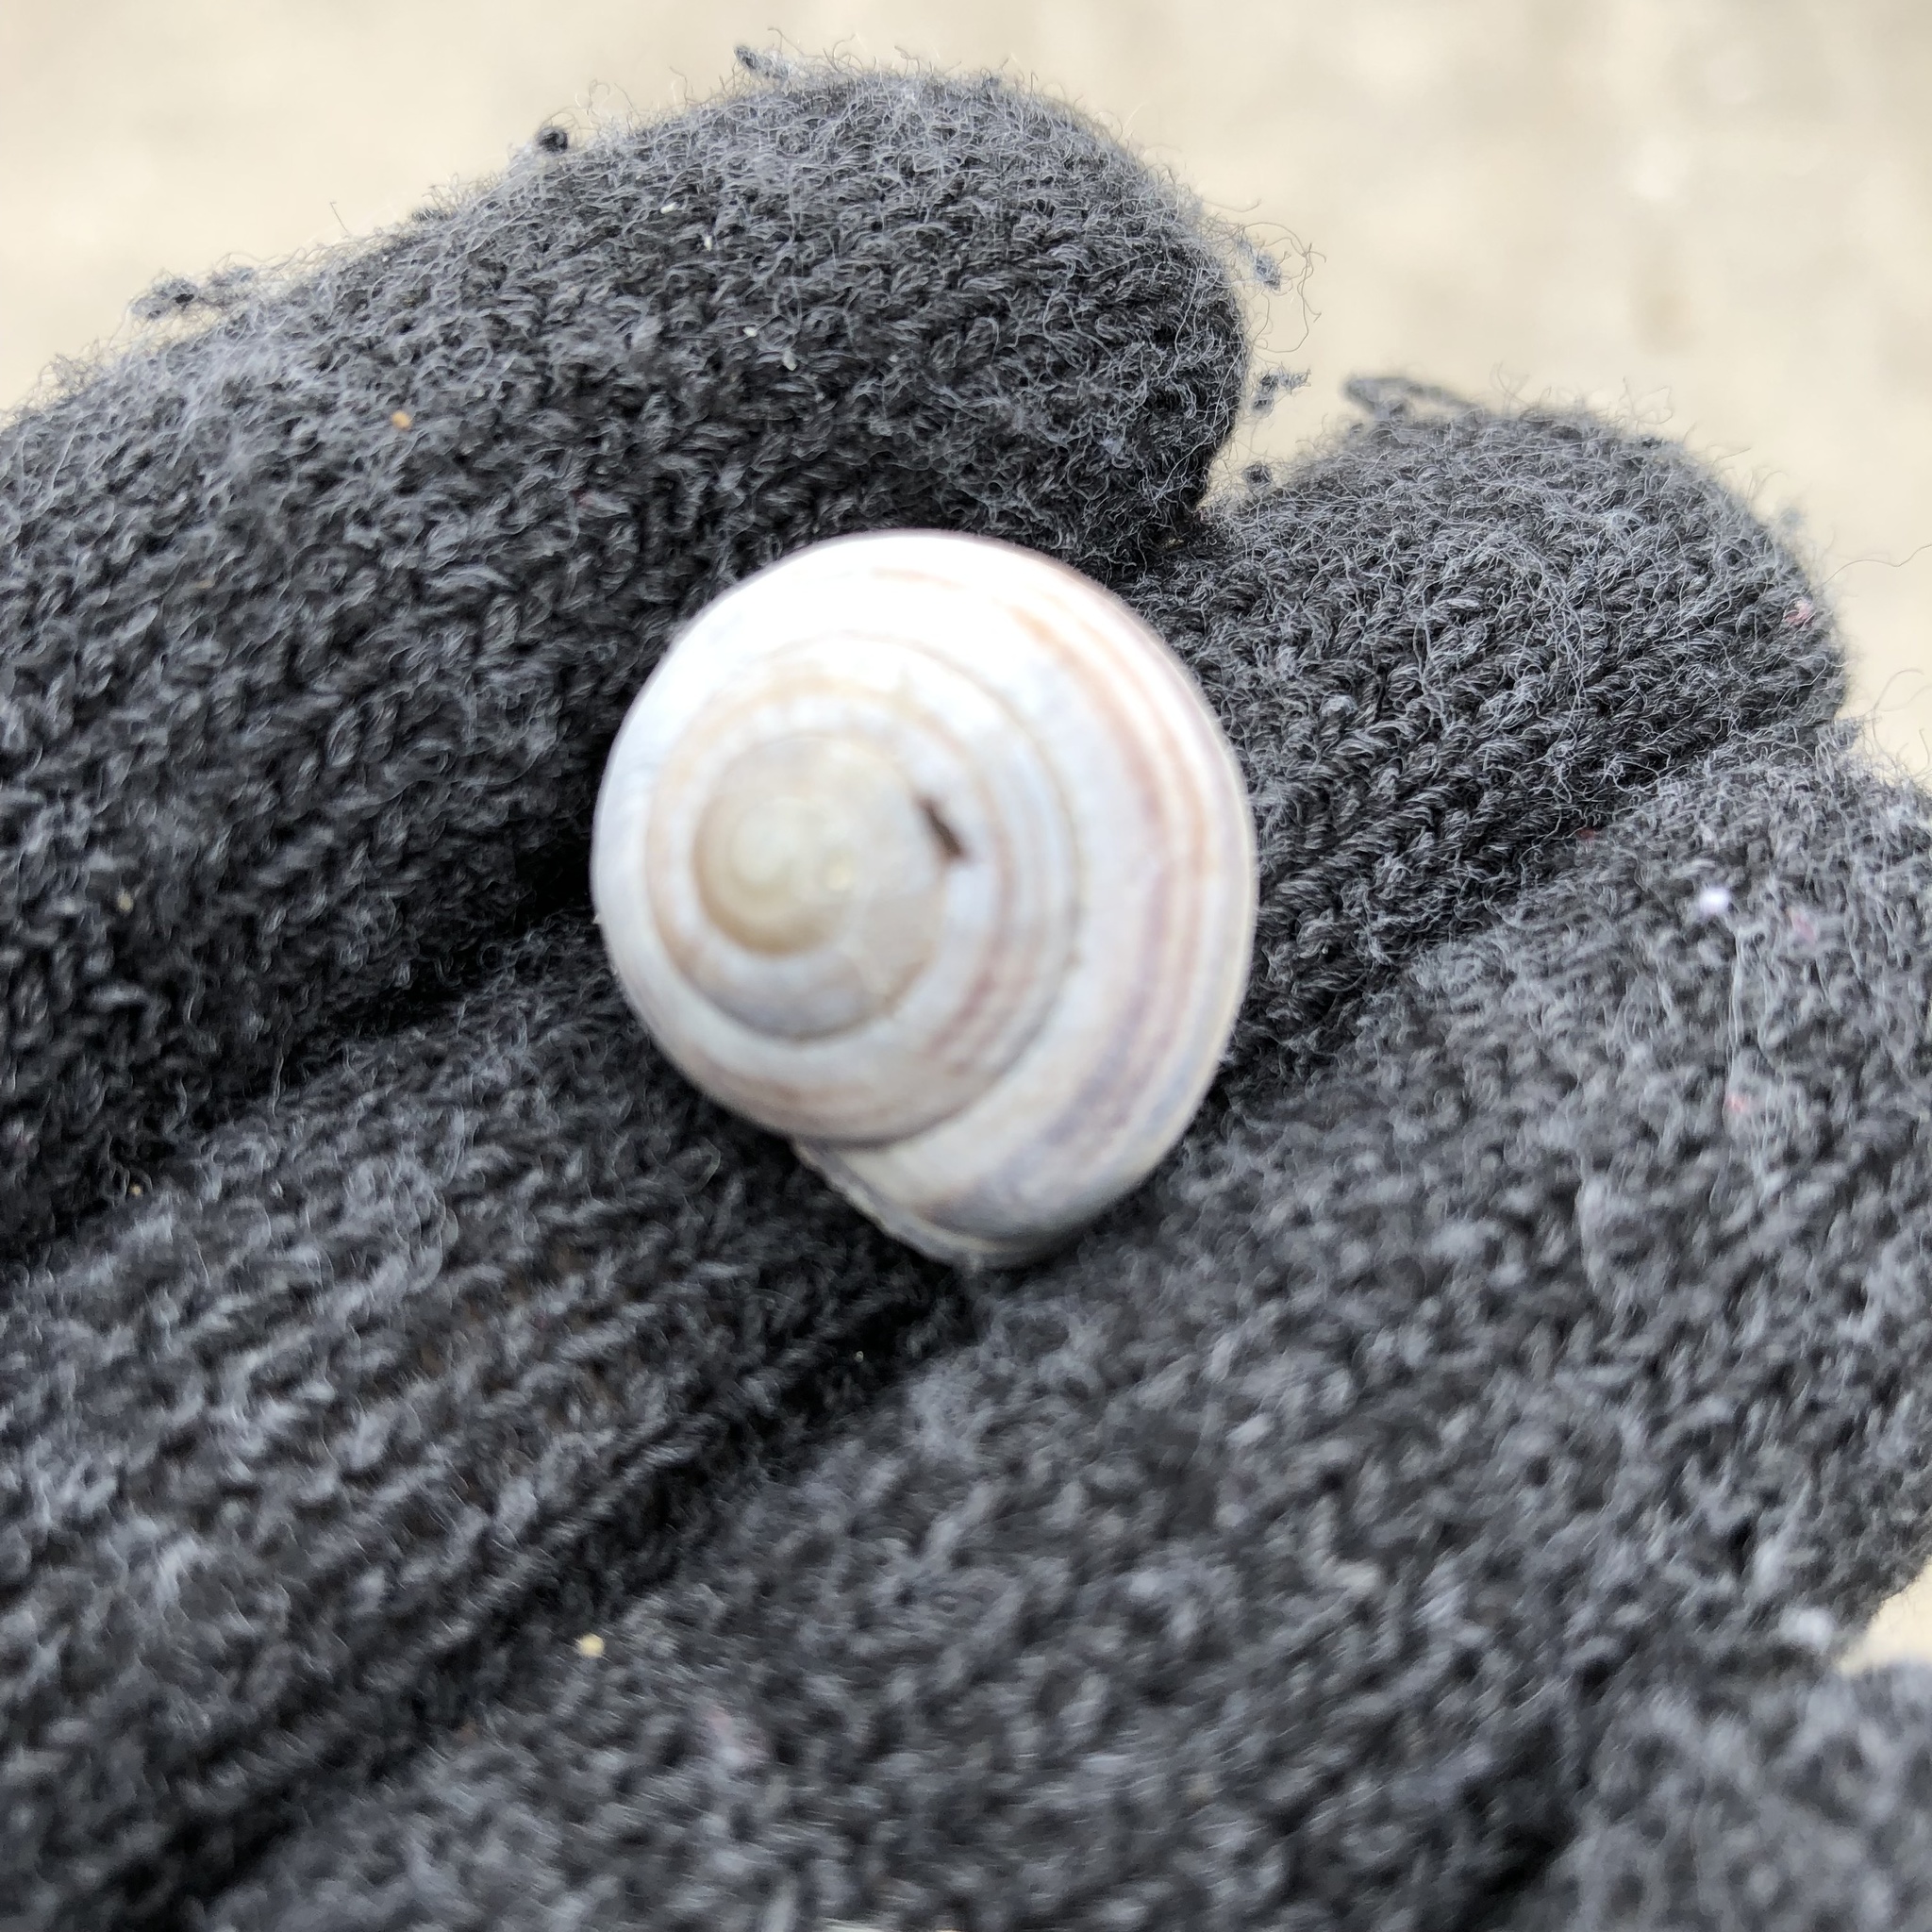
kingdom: Animalia
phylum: Mollusca
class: Gastropoda
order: Stylommatophora
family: Helicidae
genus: Cepaea
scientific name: Cepaea nemoralis
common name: Grovesnail
